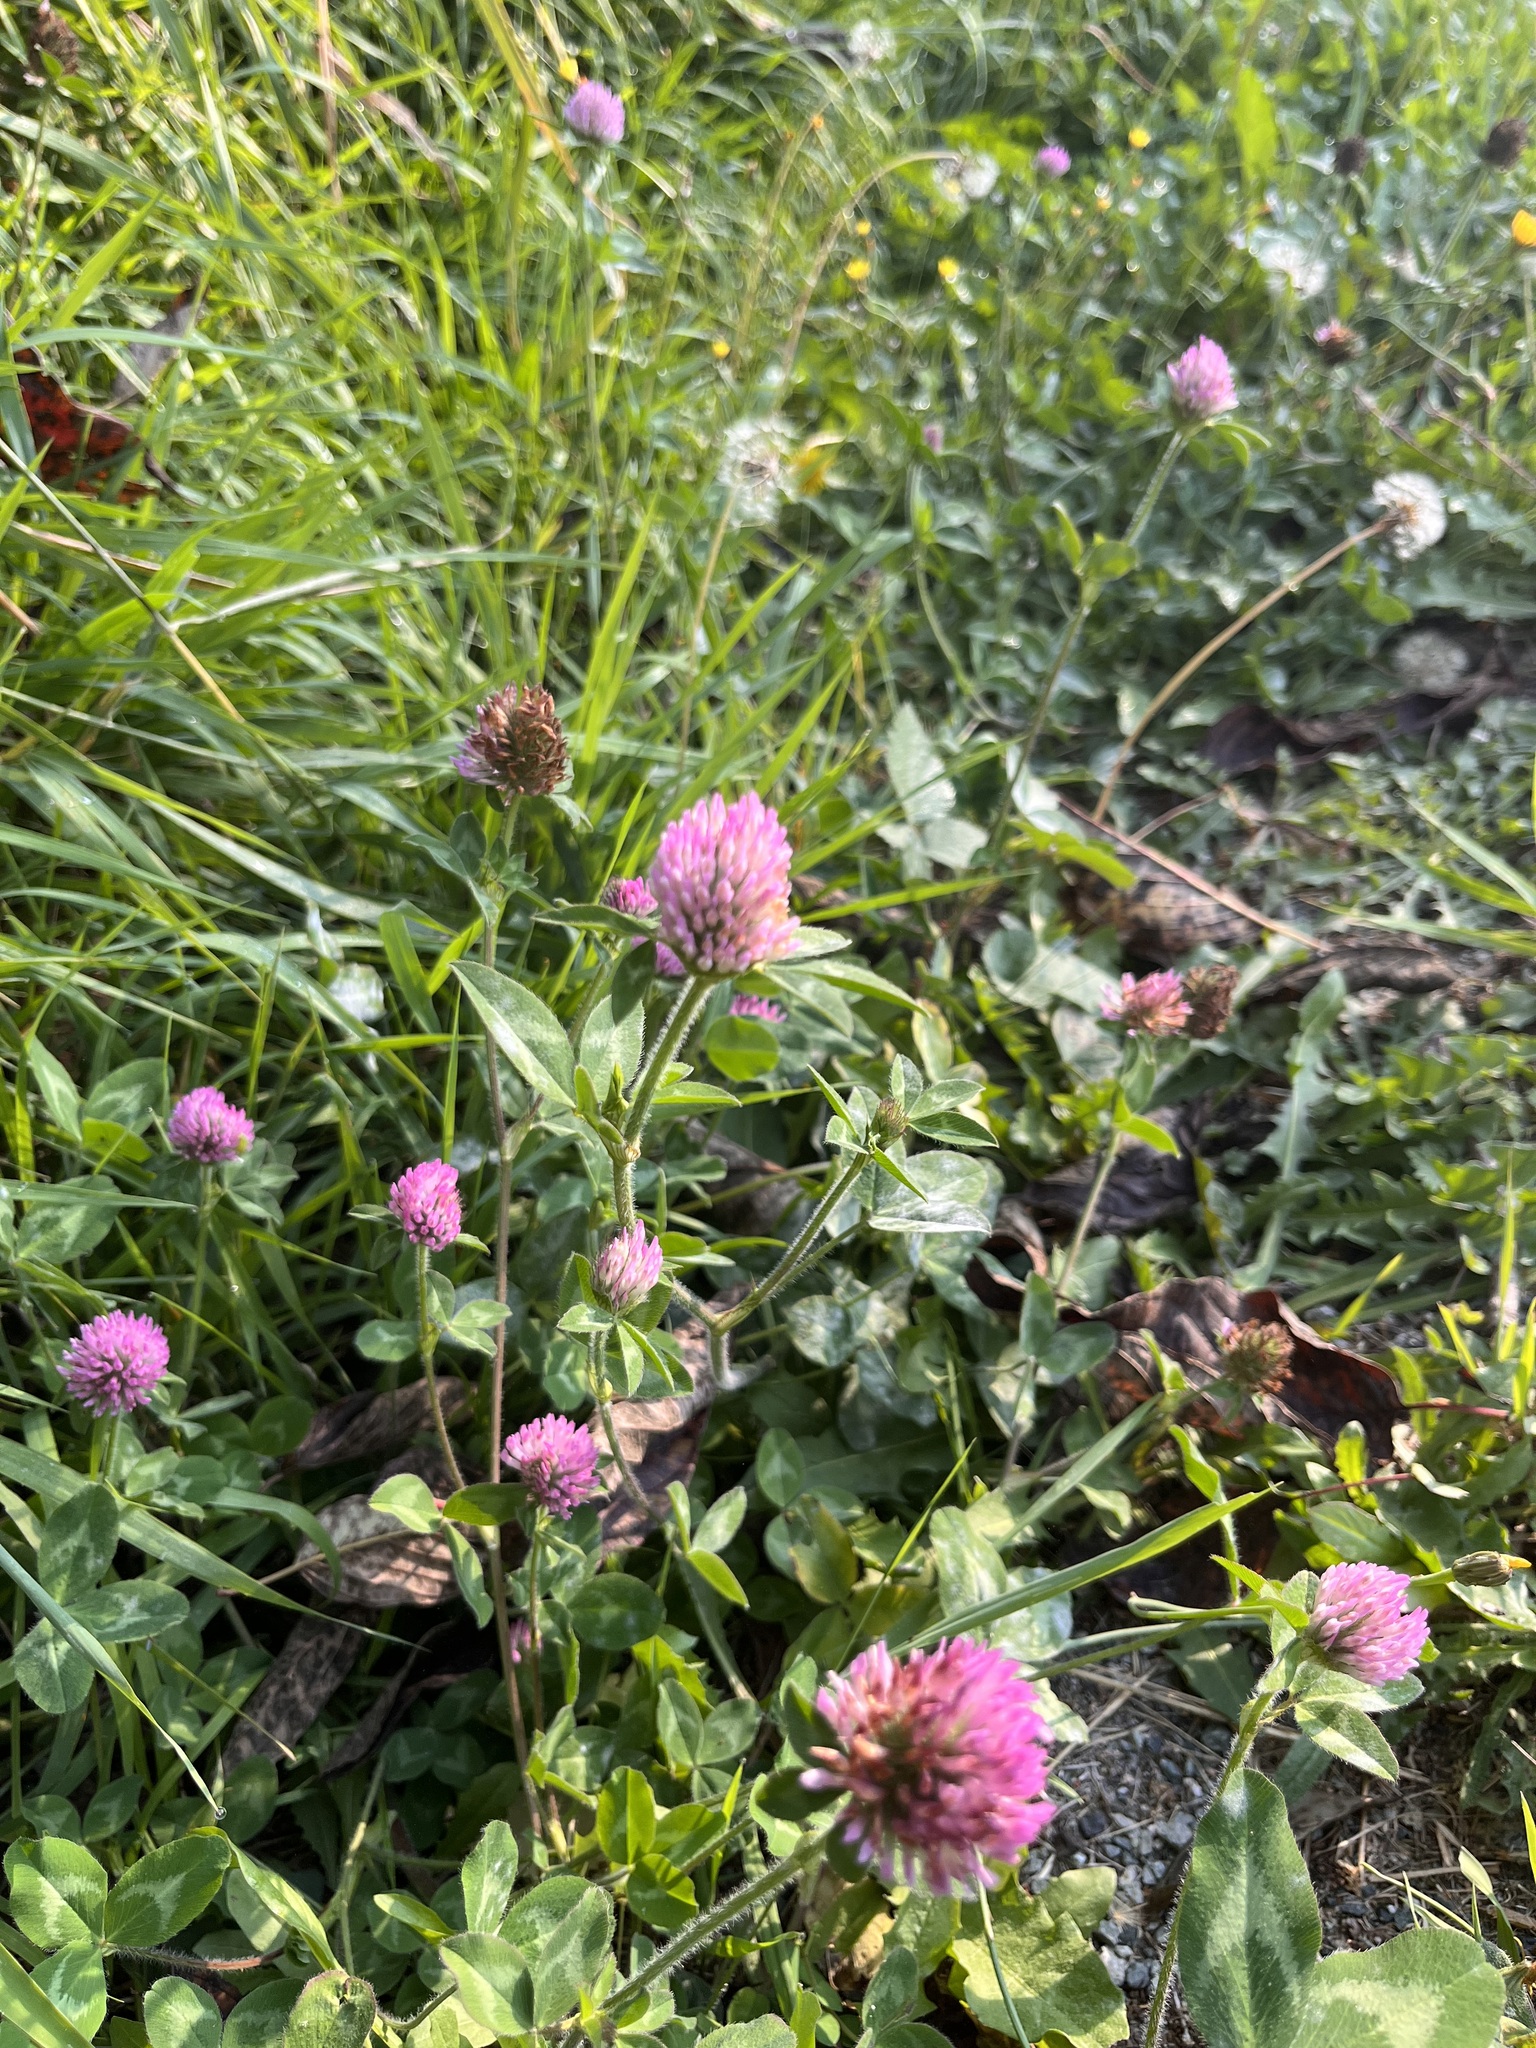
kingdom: Plantae
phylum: Tracheophyta
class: Magnoliopsida
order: Fabales
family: Fabaceae
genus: Trifolium
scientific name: Trifolium pratense
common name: Red clover
